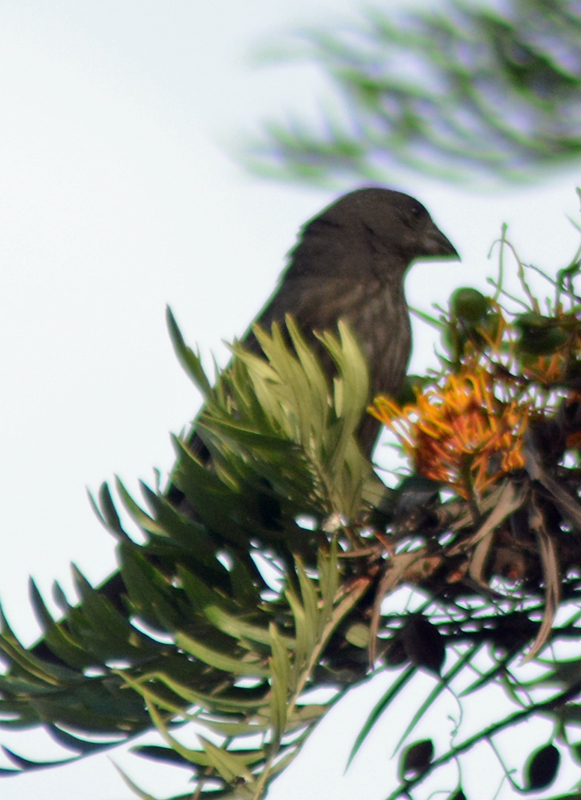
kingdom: Animalia
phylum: Chordata
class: Aves
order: Passeriformes
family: Fringillidae
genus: Haemorhous
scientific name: Haemorhous mexicanus
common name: House finch
